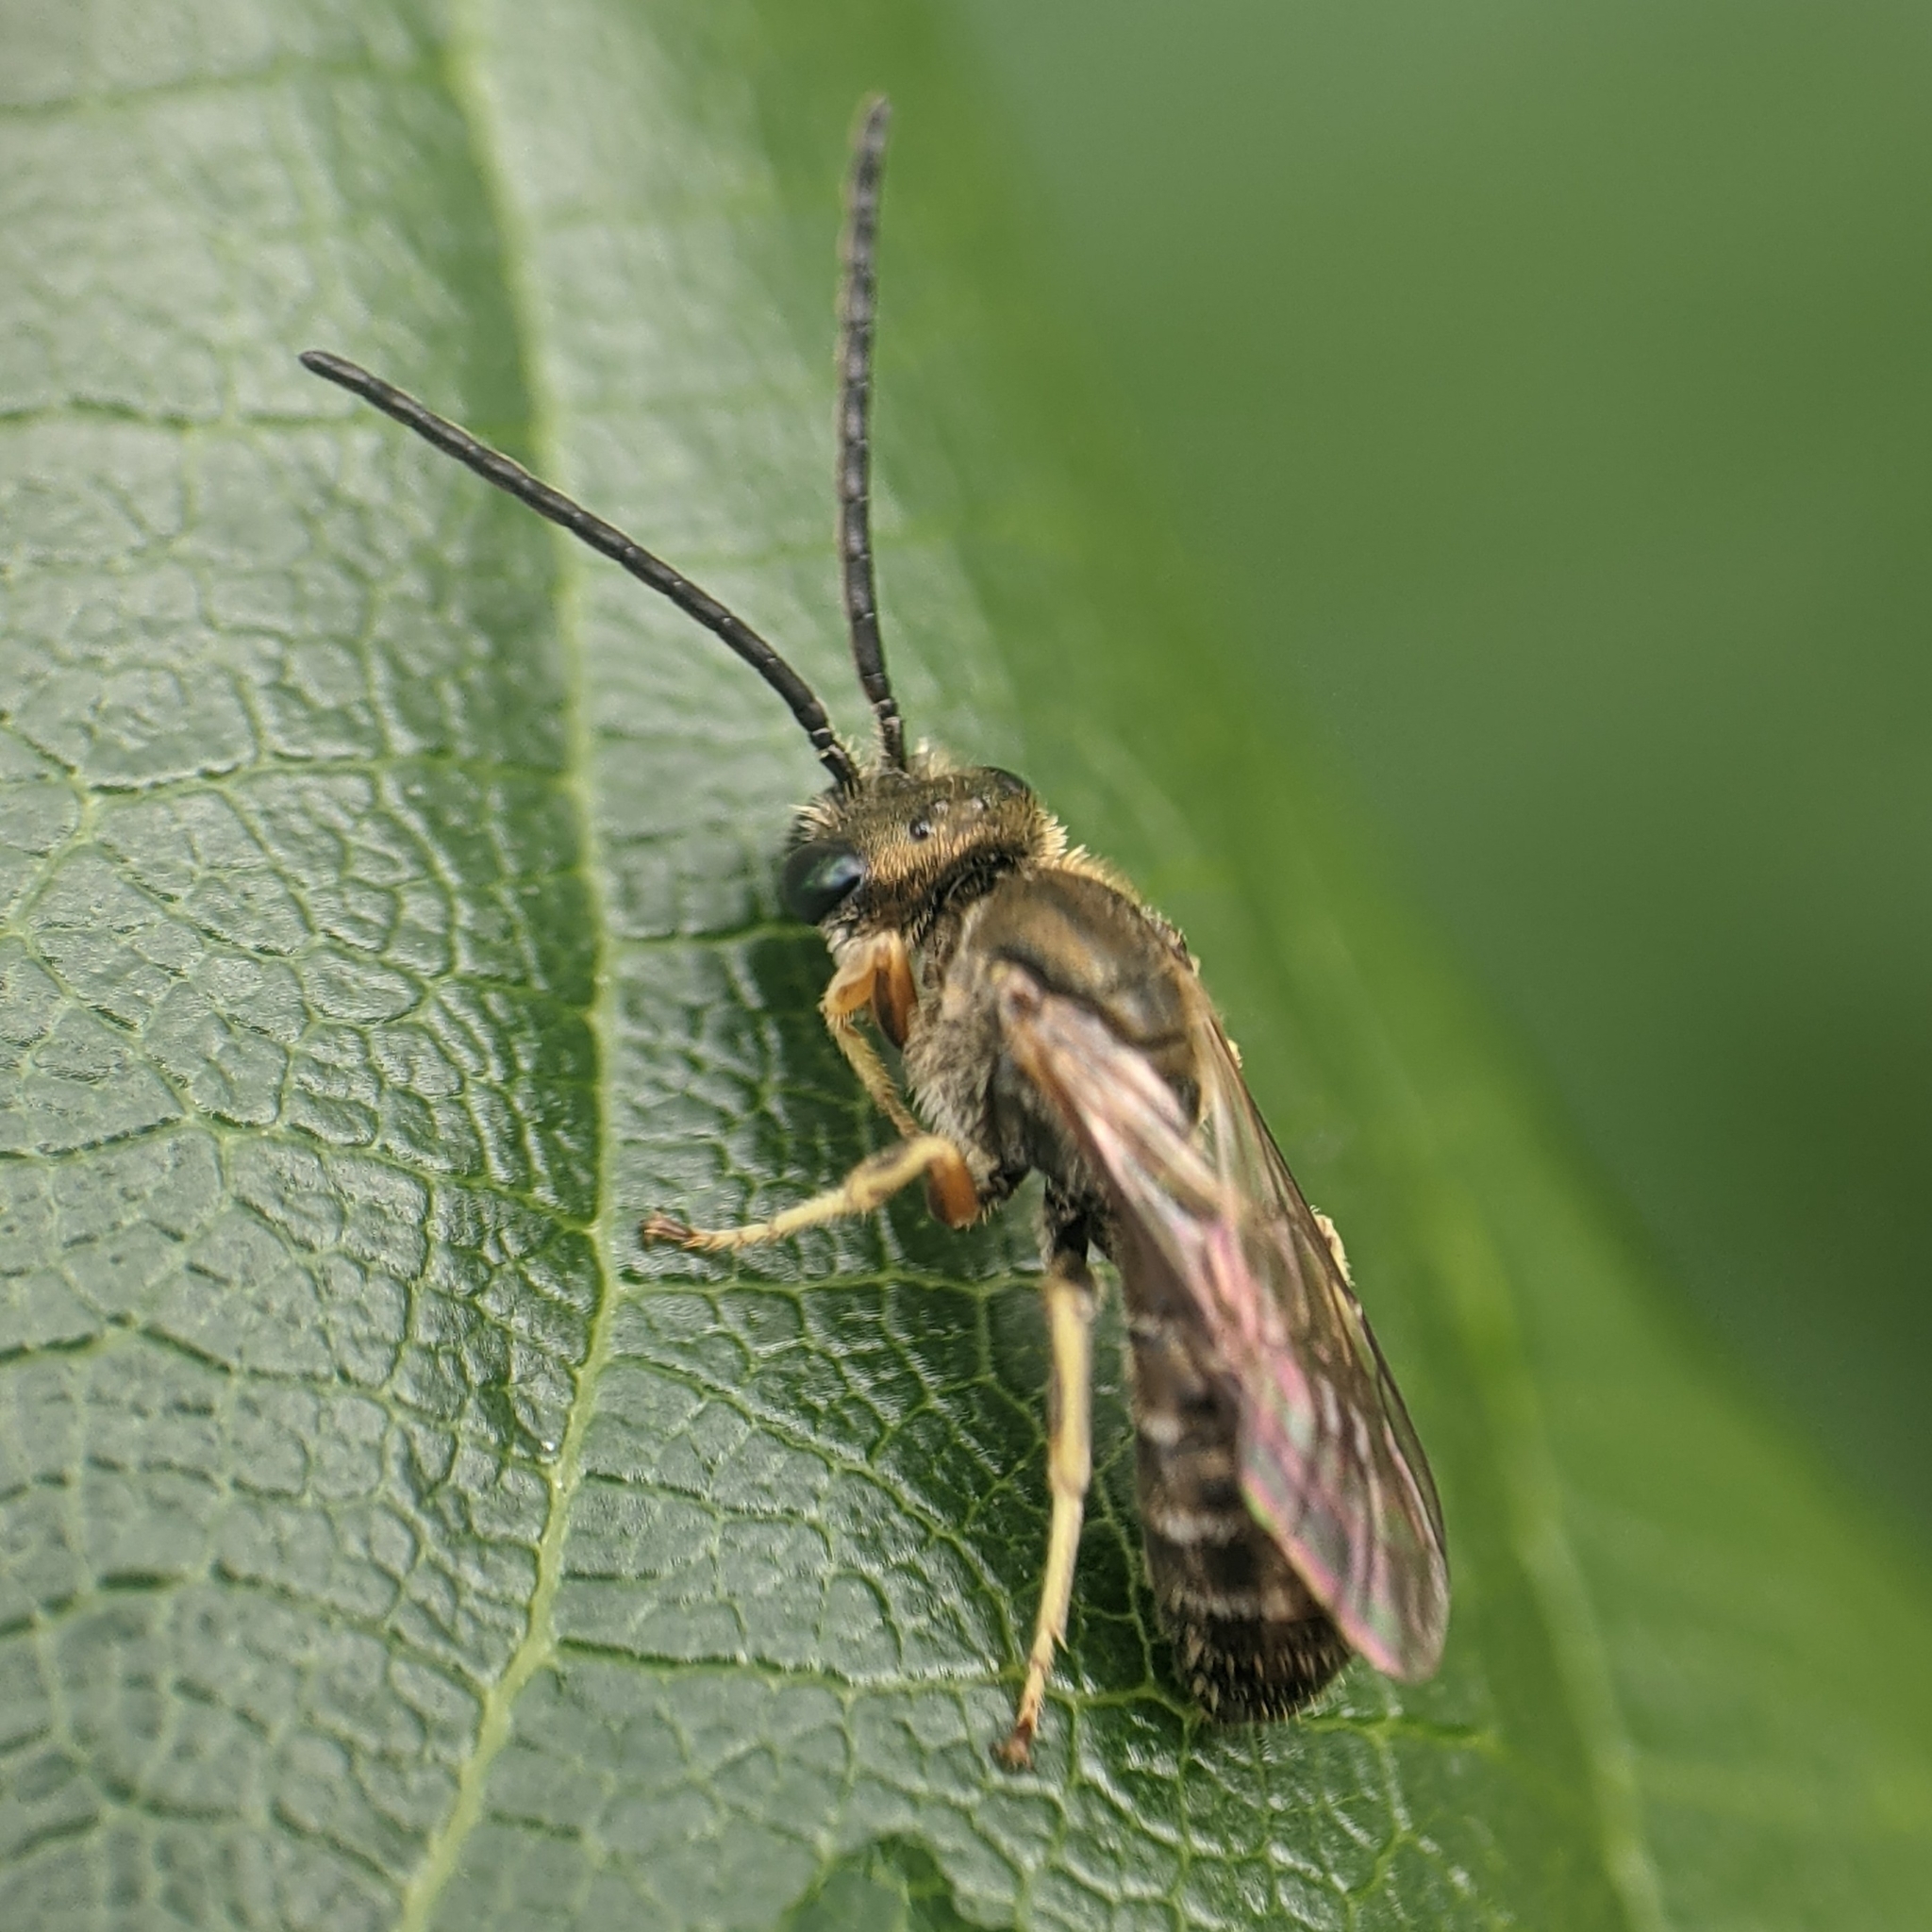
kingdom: Animalia
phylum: Arthropoda
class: Insecta
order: Hymenoptera
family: Halictidae
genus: Halictus
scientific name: Halictus confusus
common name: Southern bronze furrow bee
